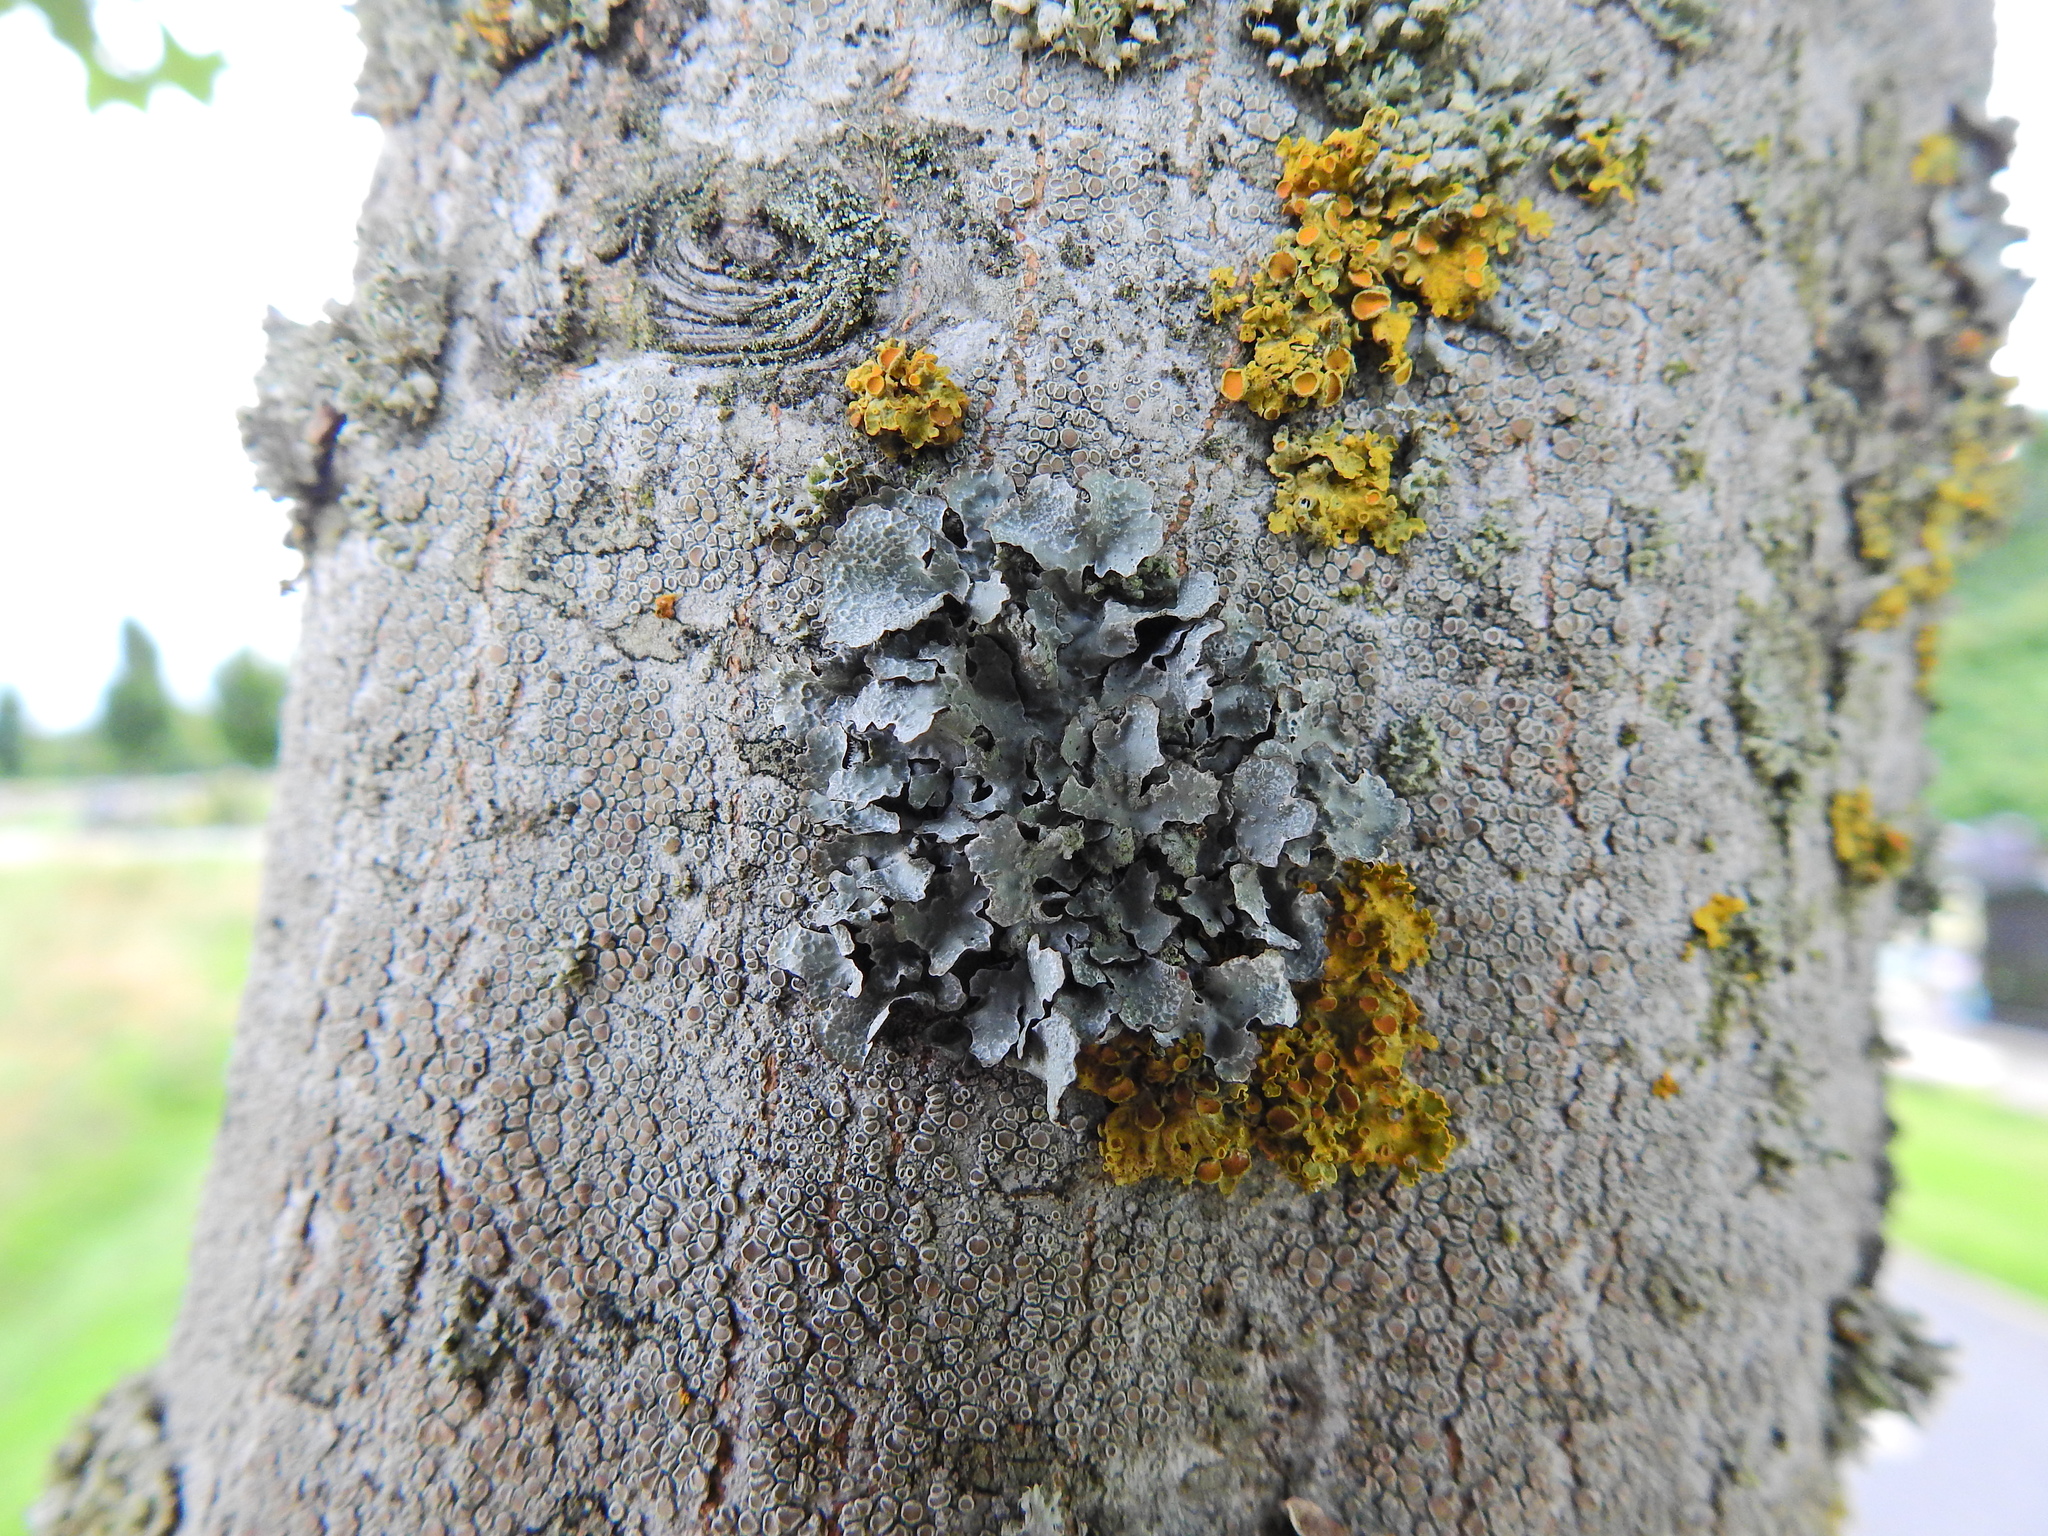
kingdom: Fungi
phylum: Ascomycota
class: Lecanoromycetes
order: Lecanorales
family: Parmeliaceae
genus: Parmelia
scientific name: Parmelia sulcata
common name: Netted shield lichen
